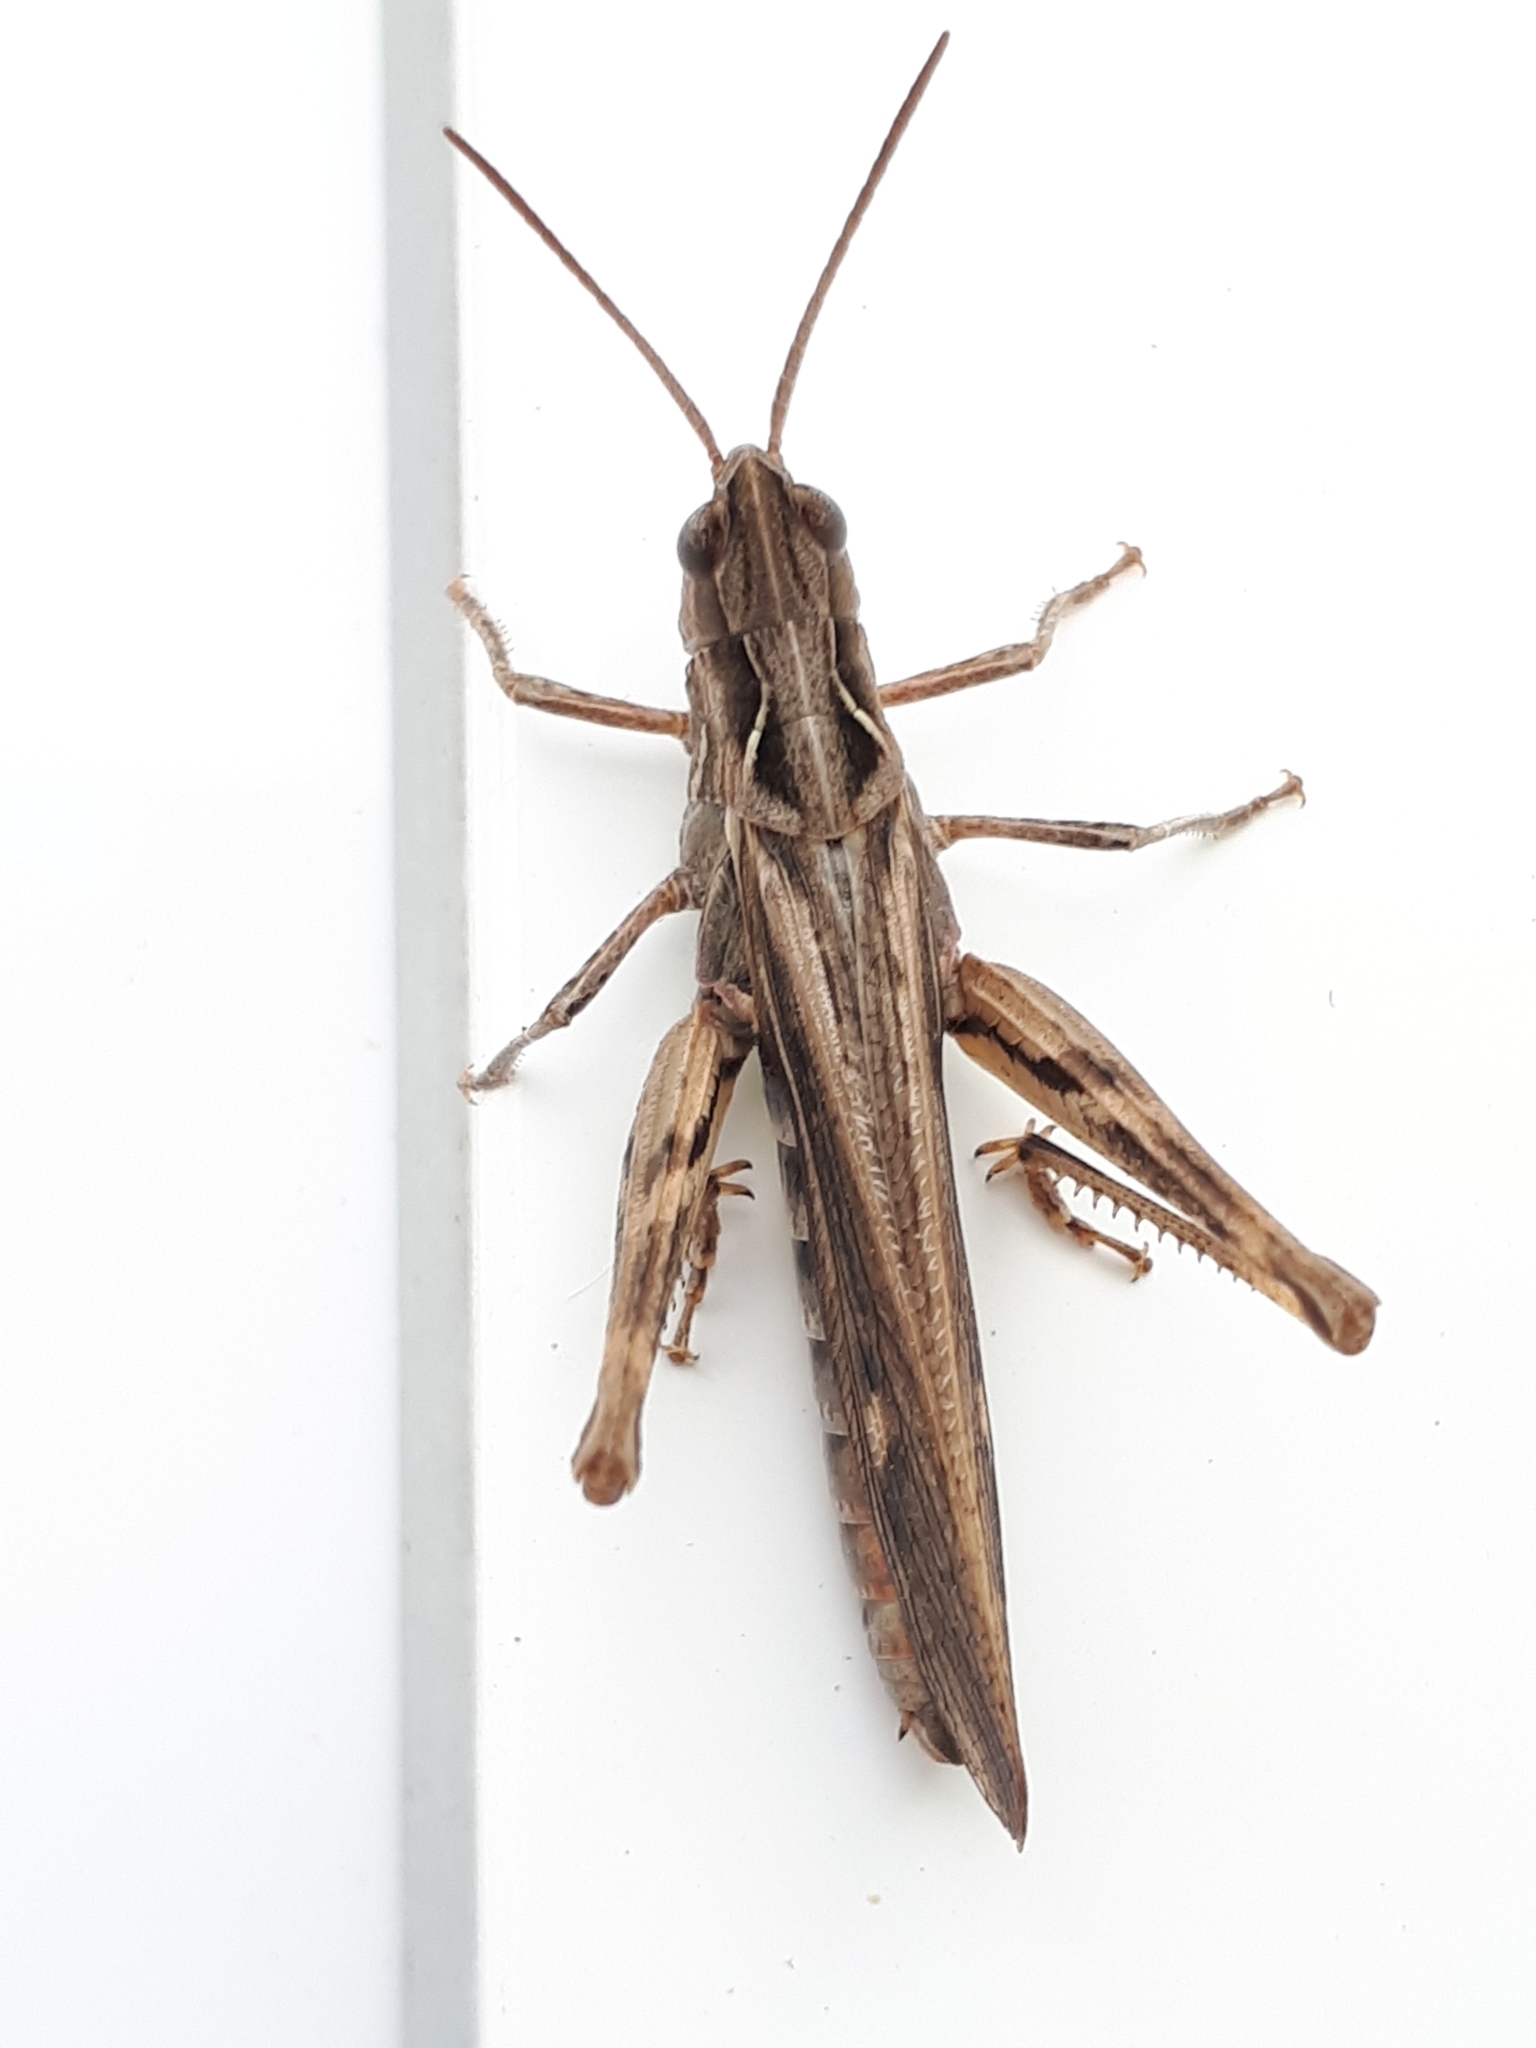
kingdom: Animalia
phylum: Arthropoda
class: Insecta
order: Orthoptera
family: Acrididae
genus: Chorthippus
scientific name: Chorthippus brunneus
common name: Field grasshopper
